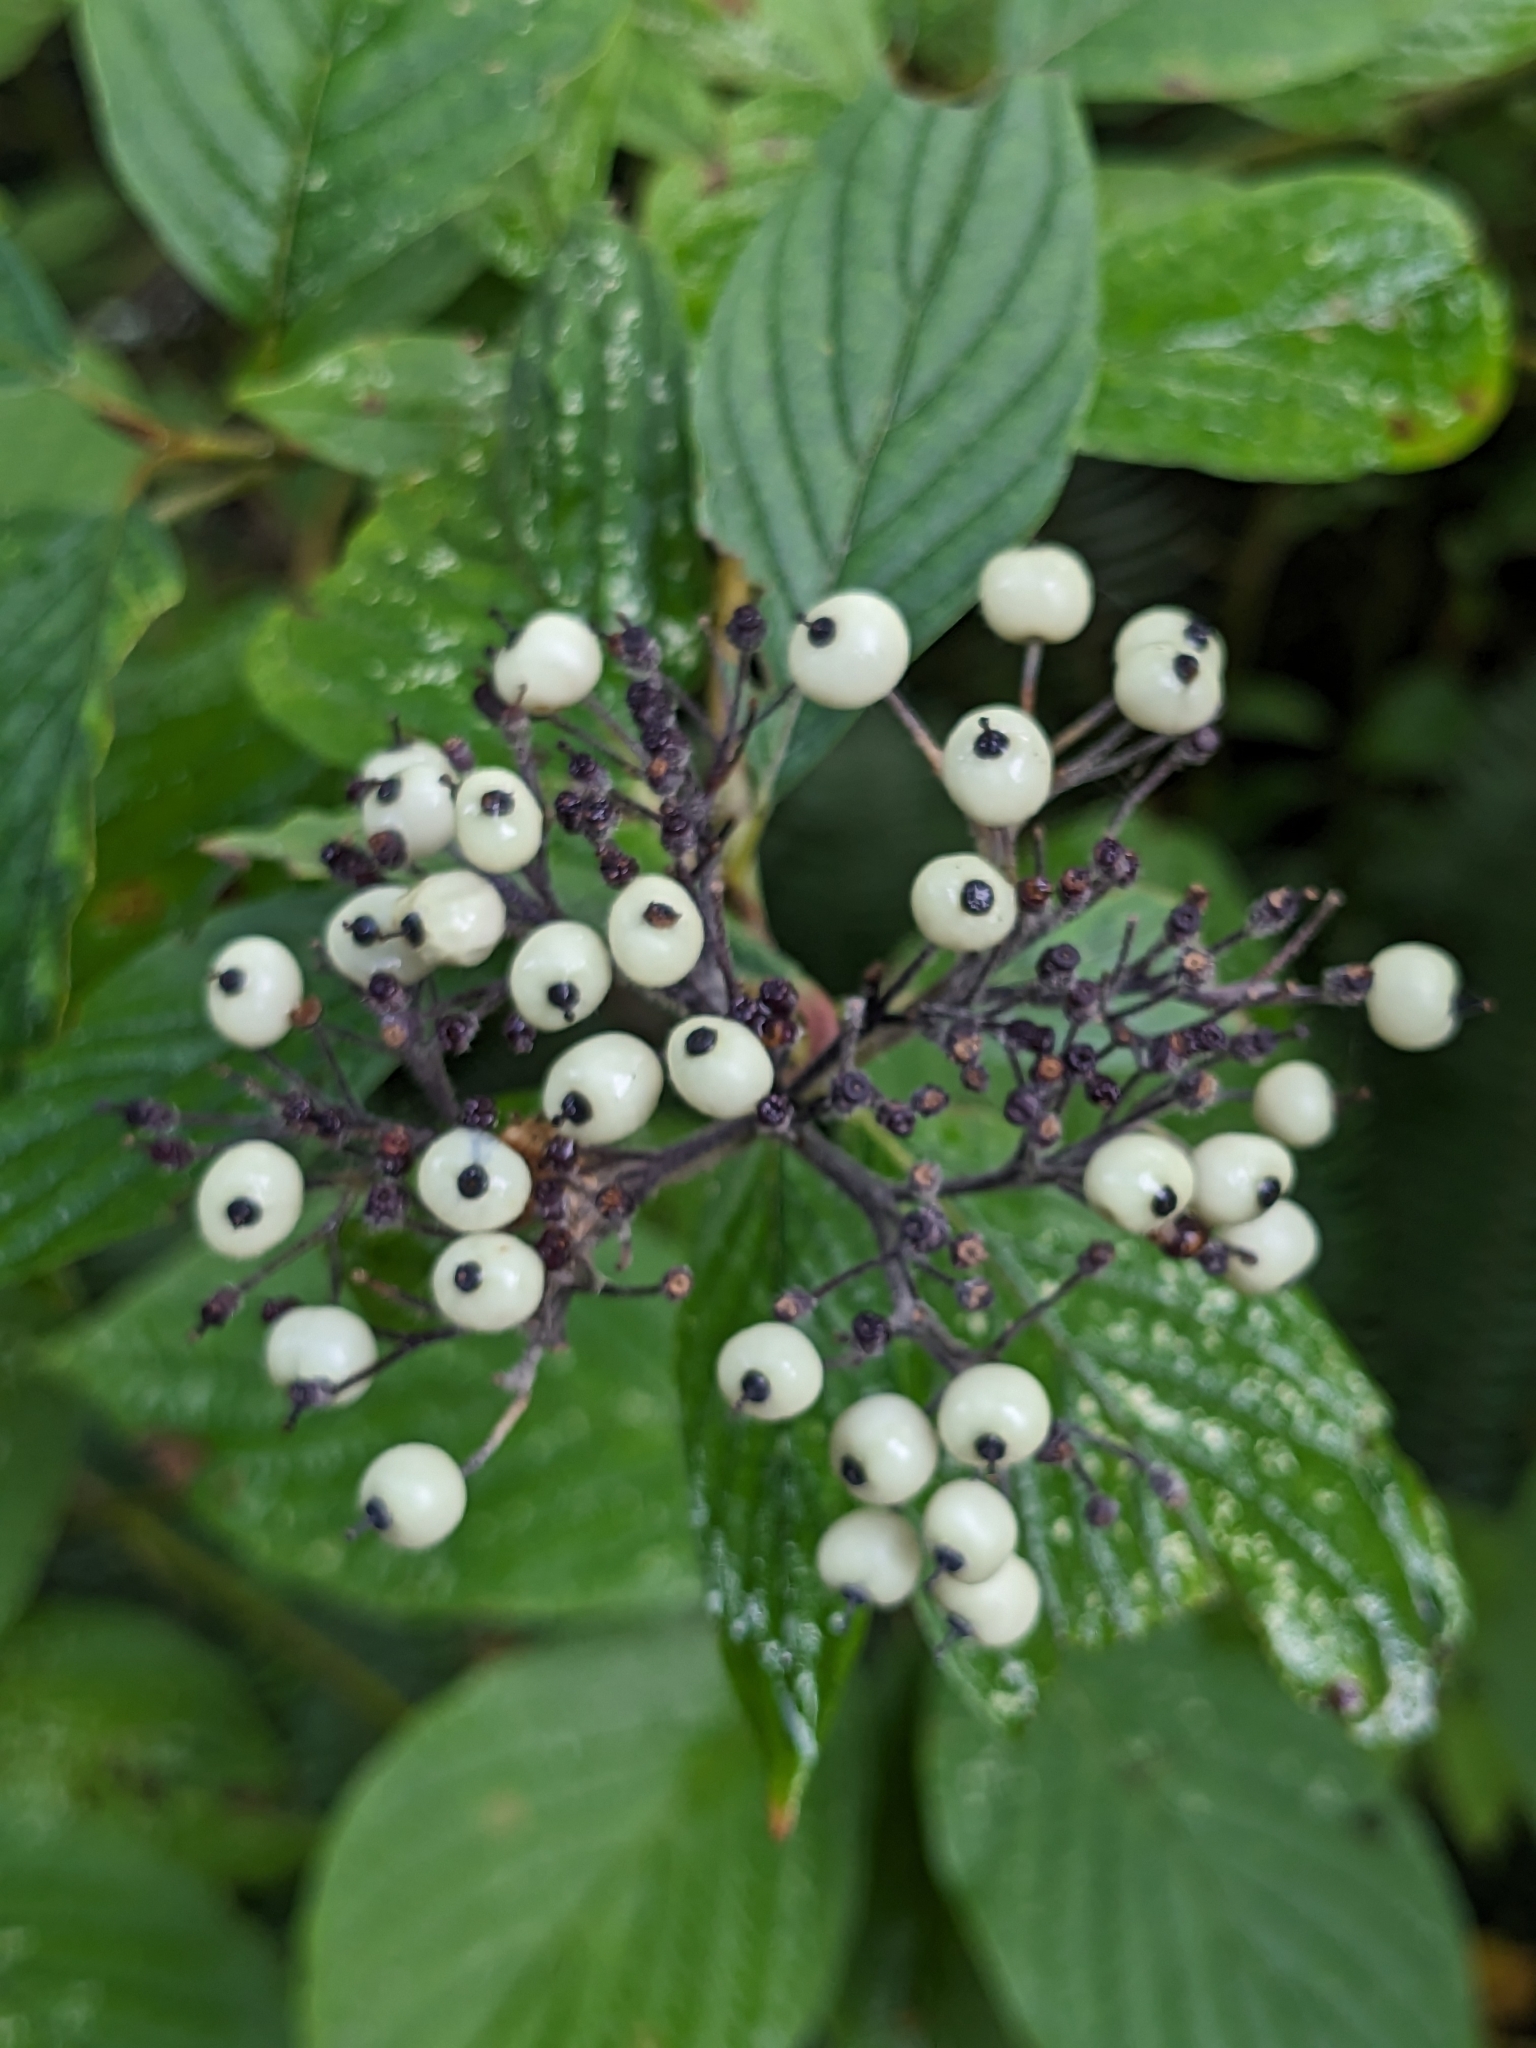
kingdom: Plantae
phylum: Tracheophyta
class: Magnoliopsida
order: Cornales
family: Cornaceae
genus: Cornus
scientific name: Cornus sericea
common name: Red-osier dogwood
